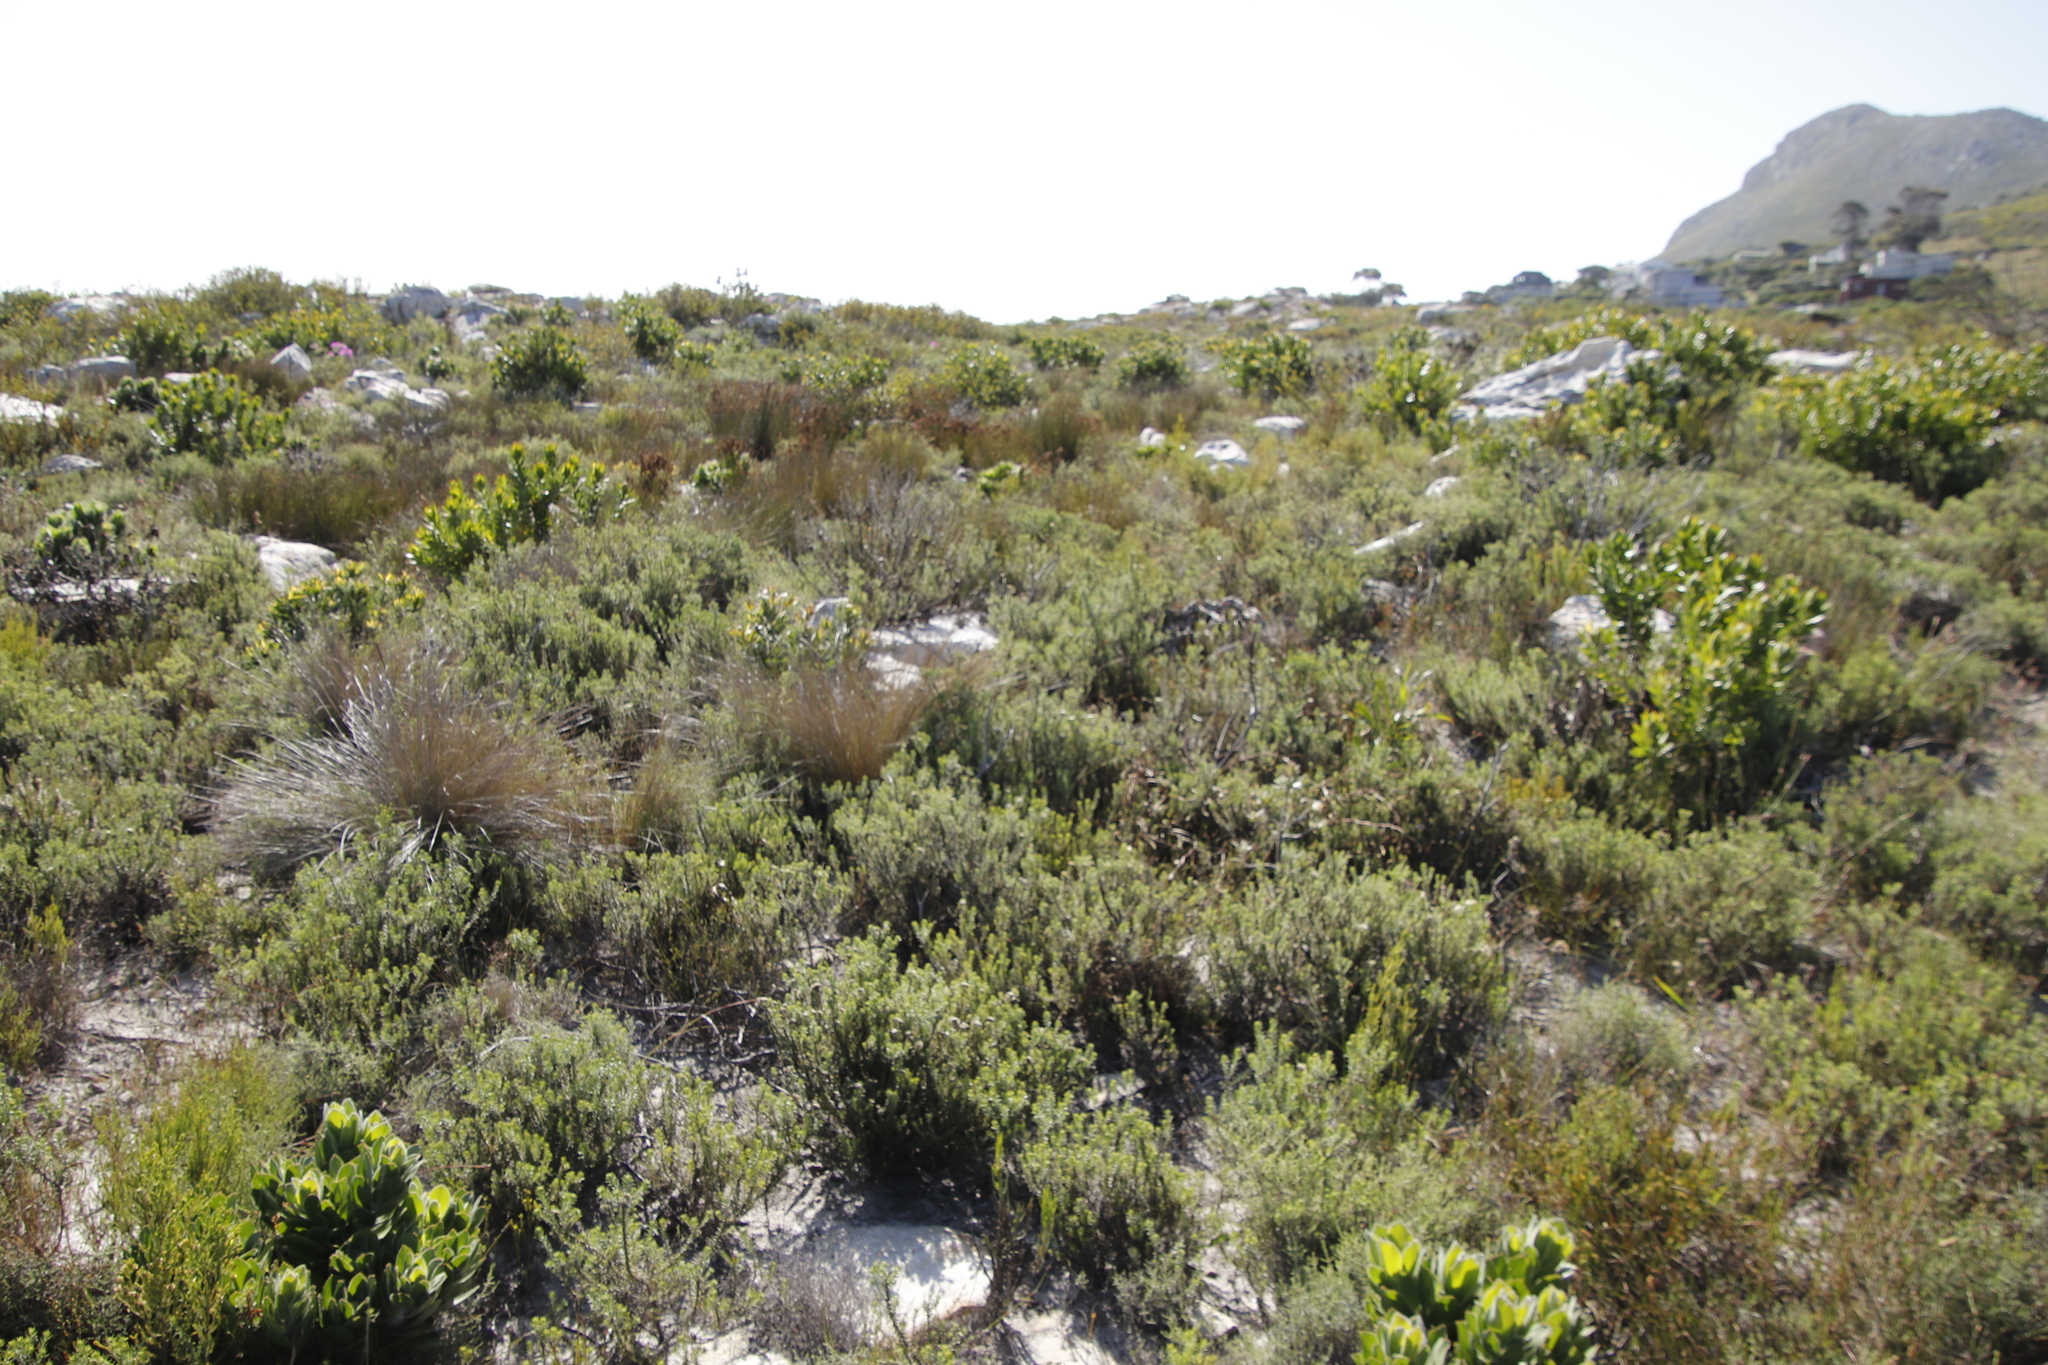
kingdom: Plantae
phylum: Tracheophyta
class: Magnoliopsida
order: Asterales
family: Asteraceae
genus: Metalasia
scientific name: Metalasia densa
